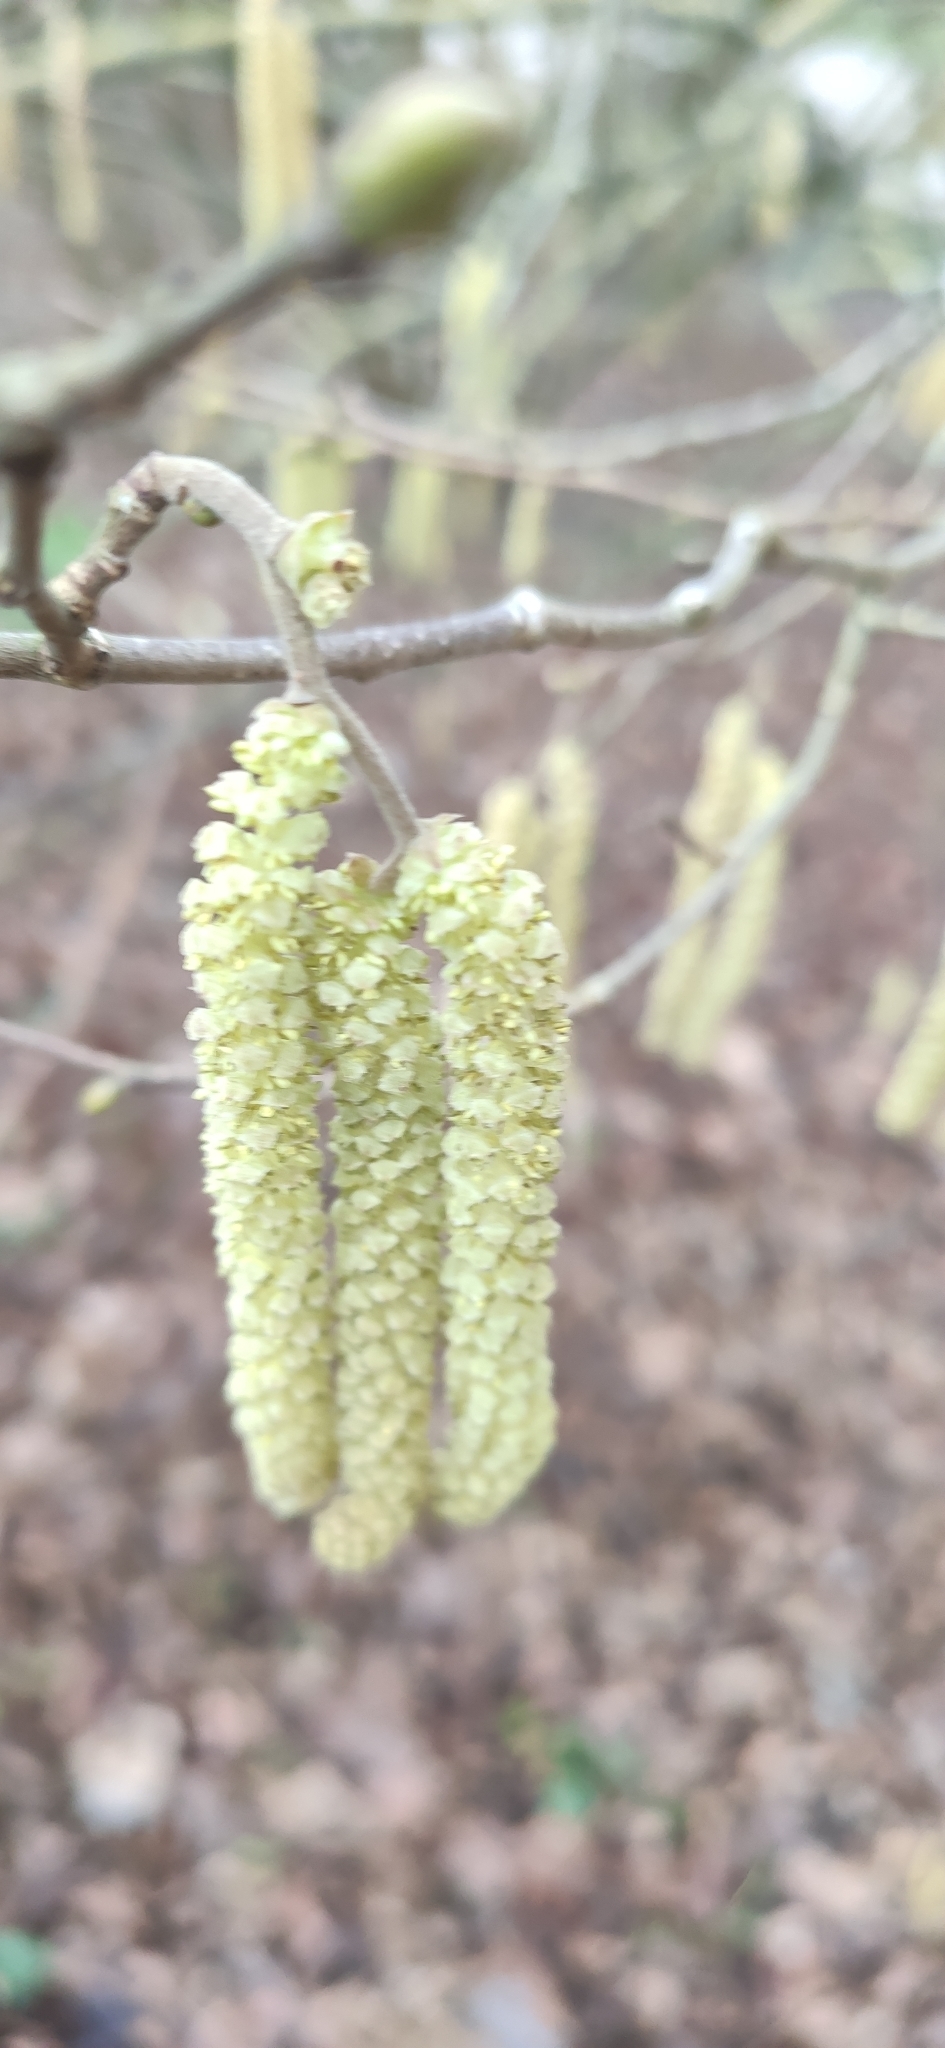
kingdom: Plantae
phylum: Tracheophyta
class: Magnoliopsida
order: Fagales
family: Betulaceae
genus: Corylus
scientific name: Corylus avellana
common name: European hazel
